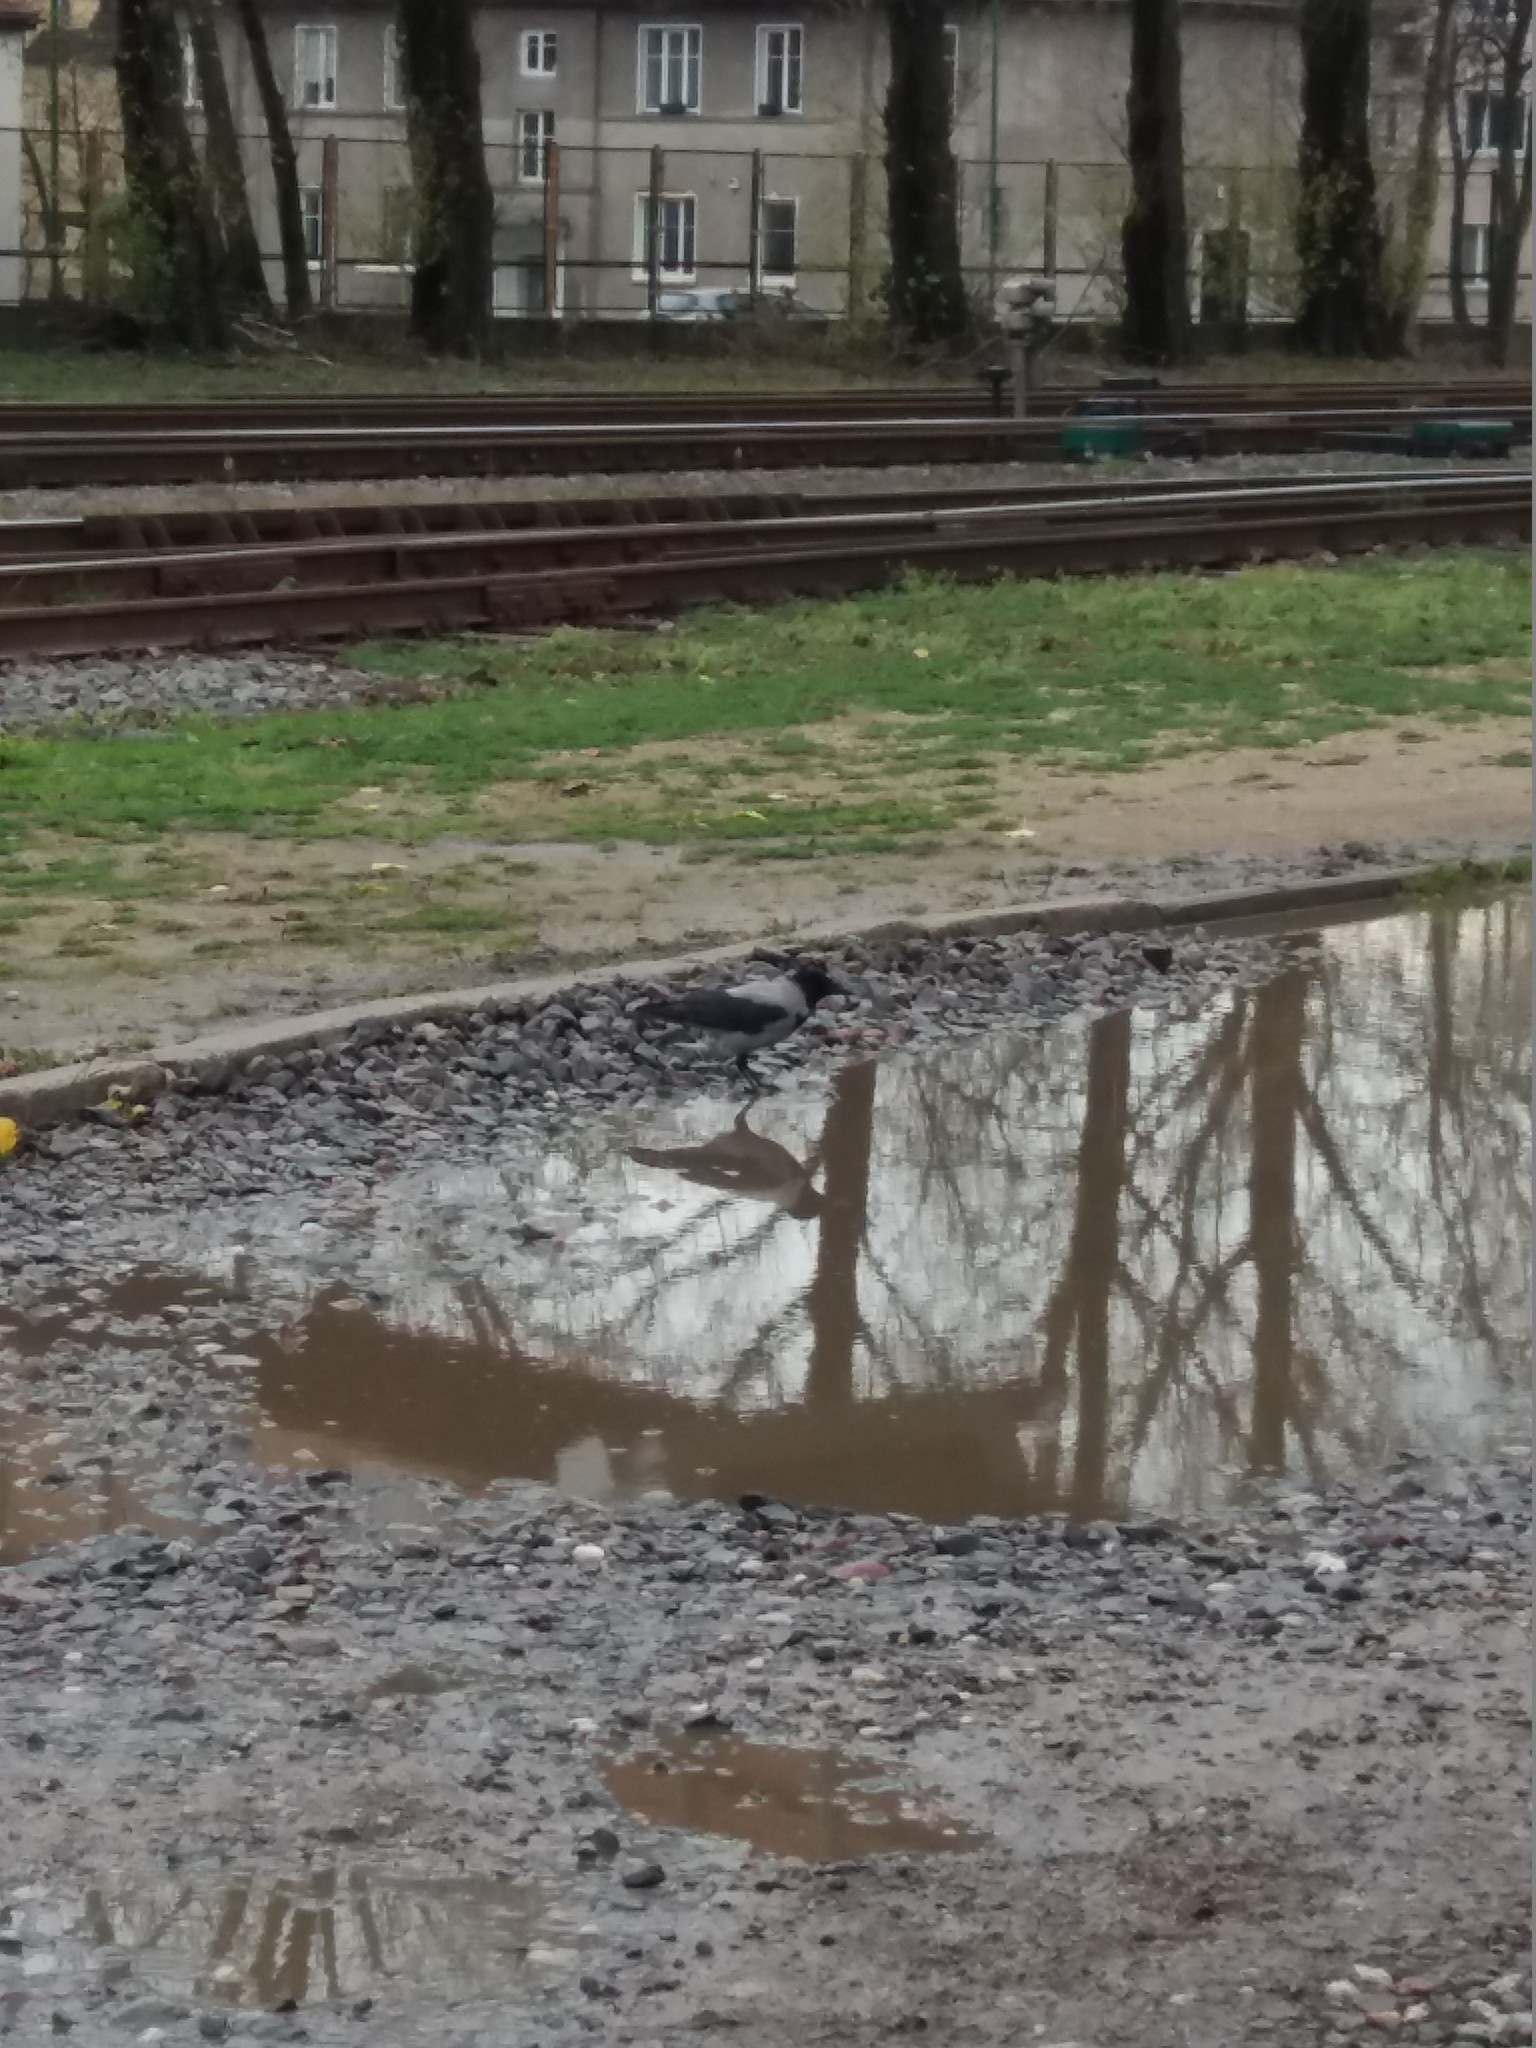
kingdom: Animalia
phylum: Chordata
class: Aves
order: Passeriformes
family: Corvidae
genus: Corvus
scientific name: Corvus cornix
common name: Hooded crow
